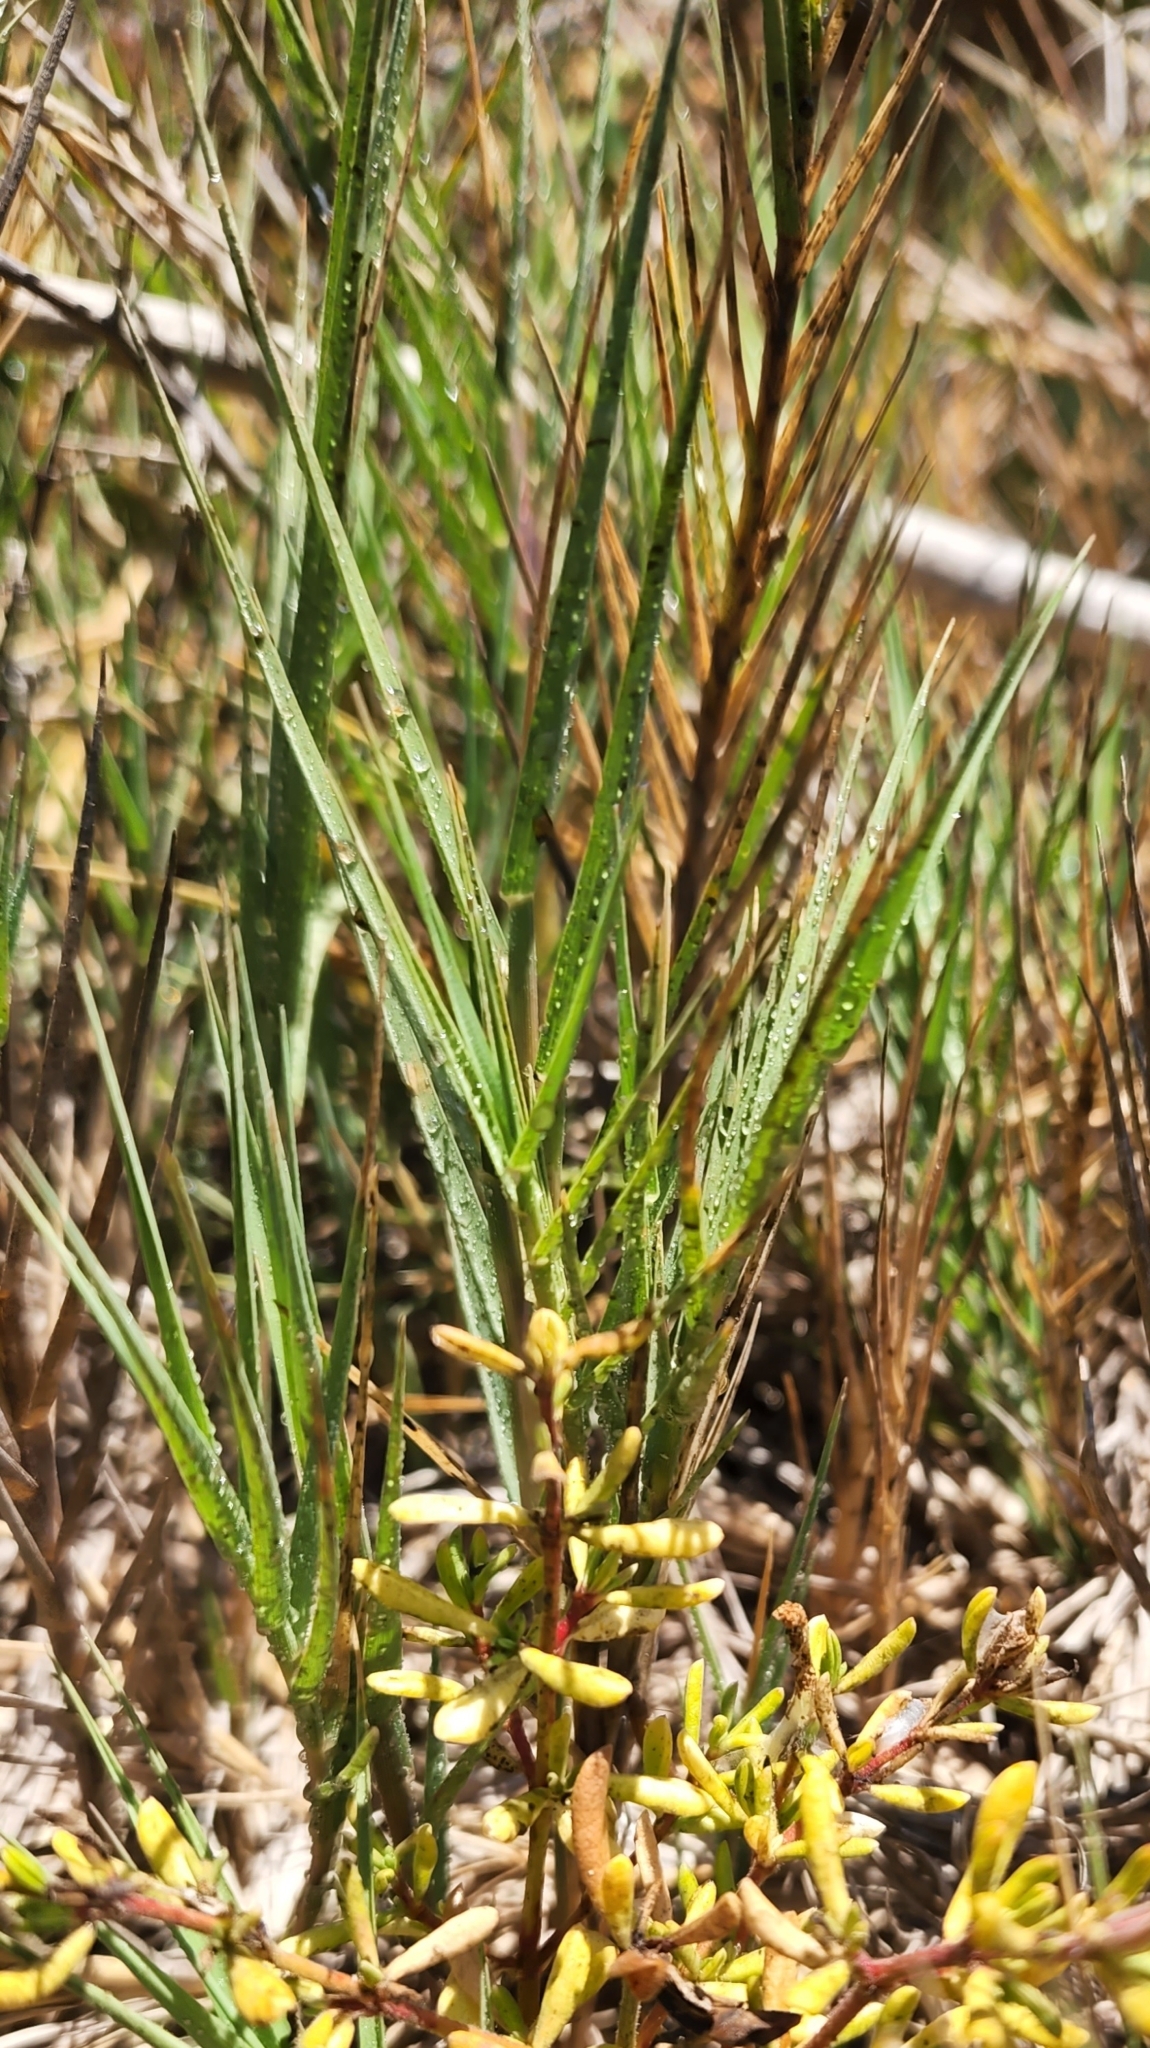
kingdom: Plantae
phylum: Tracheophyta
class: Liliopsida
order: Poales
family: Poaceae
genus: Distichlis
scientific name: Distichlis spicata
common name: Saltgrass
